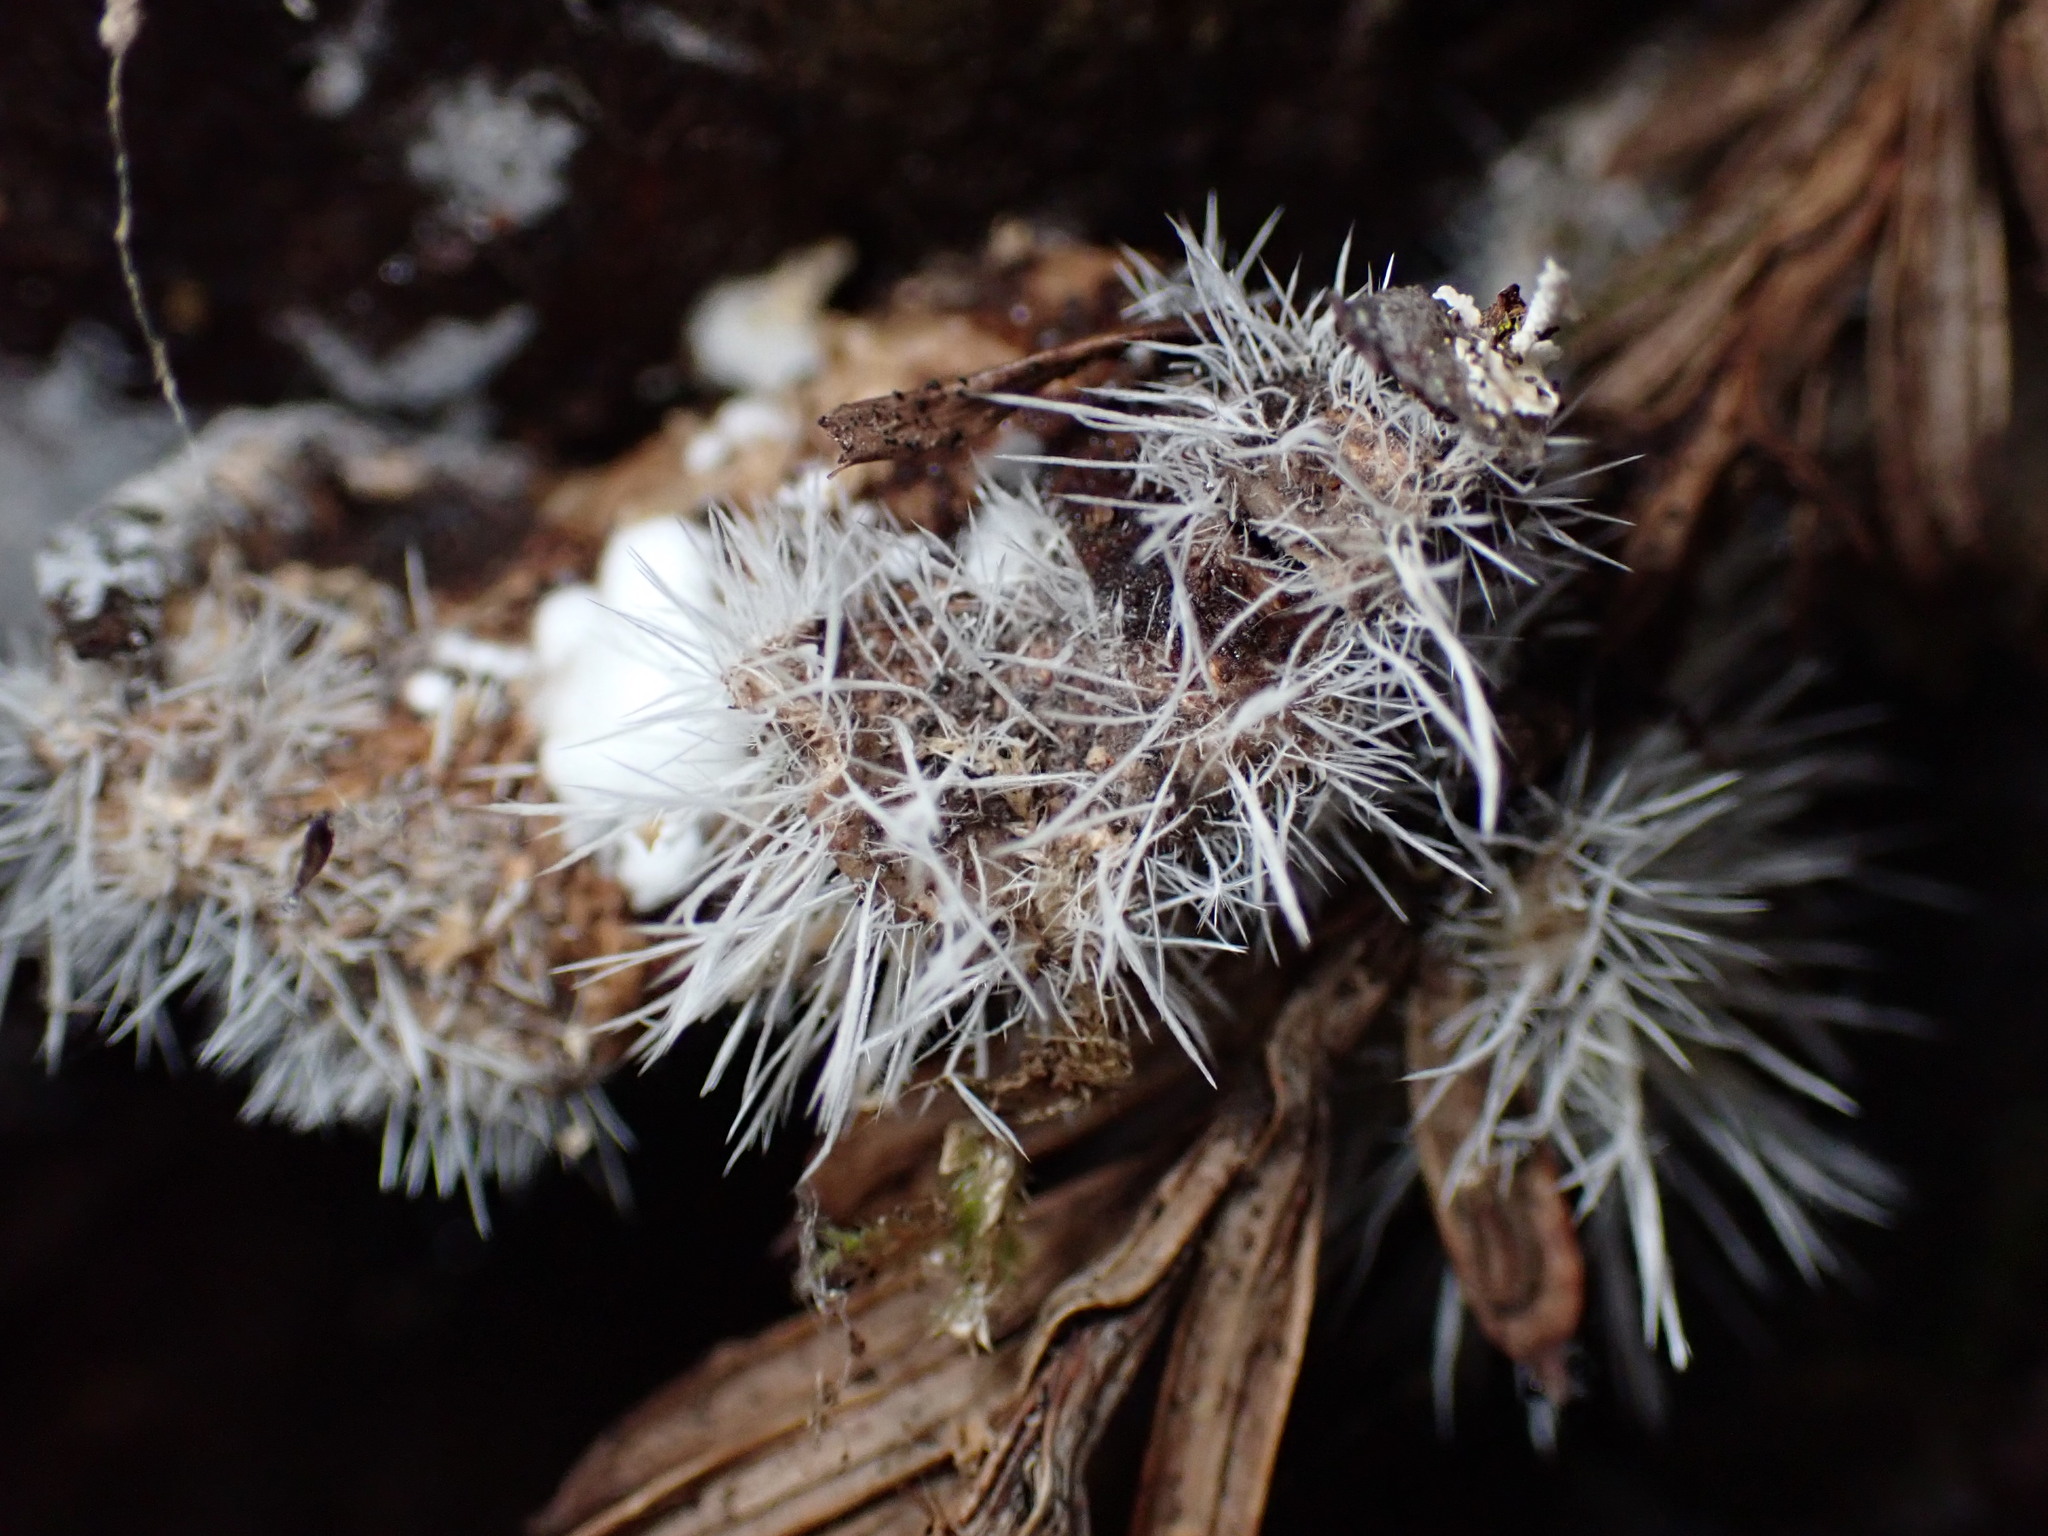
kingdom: Fungi
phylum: Ascomycota
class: Sordariomycetes
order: Hypocreales
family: Tilachlidiaceae
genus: Tilachlidium
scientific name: Tilachlidium brachiatum
